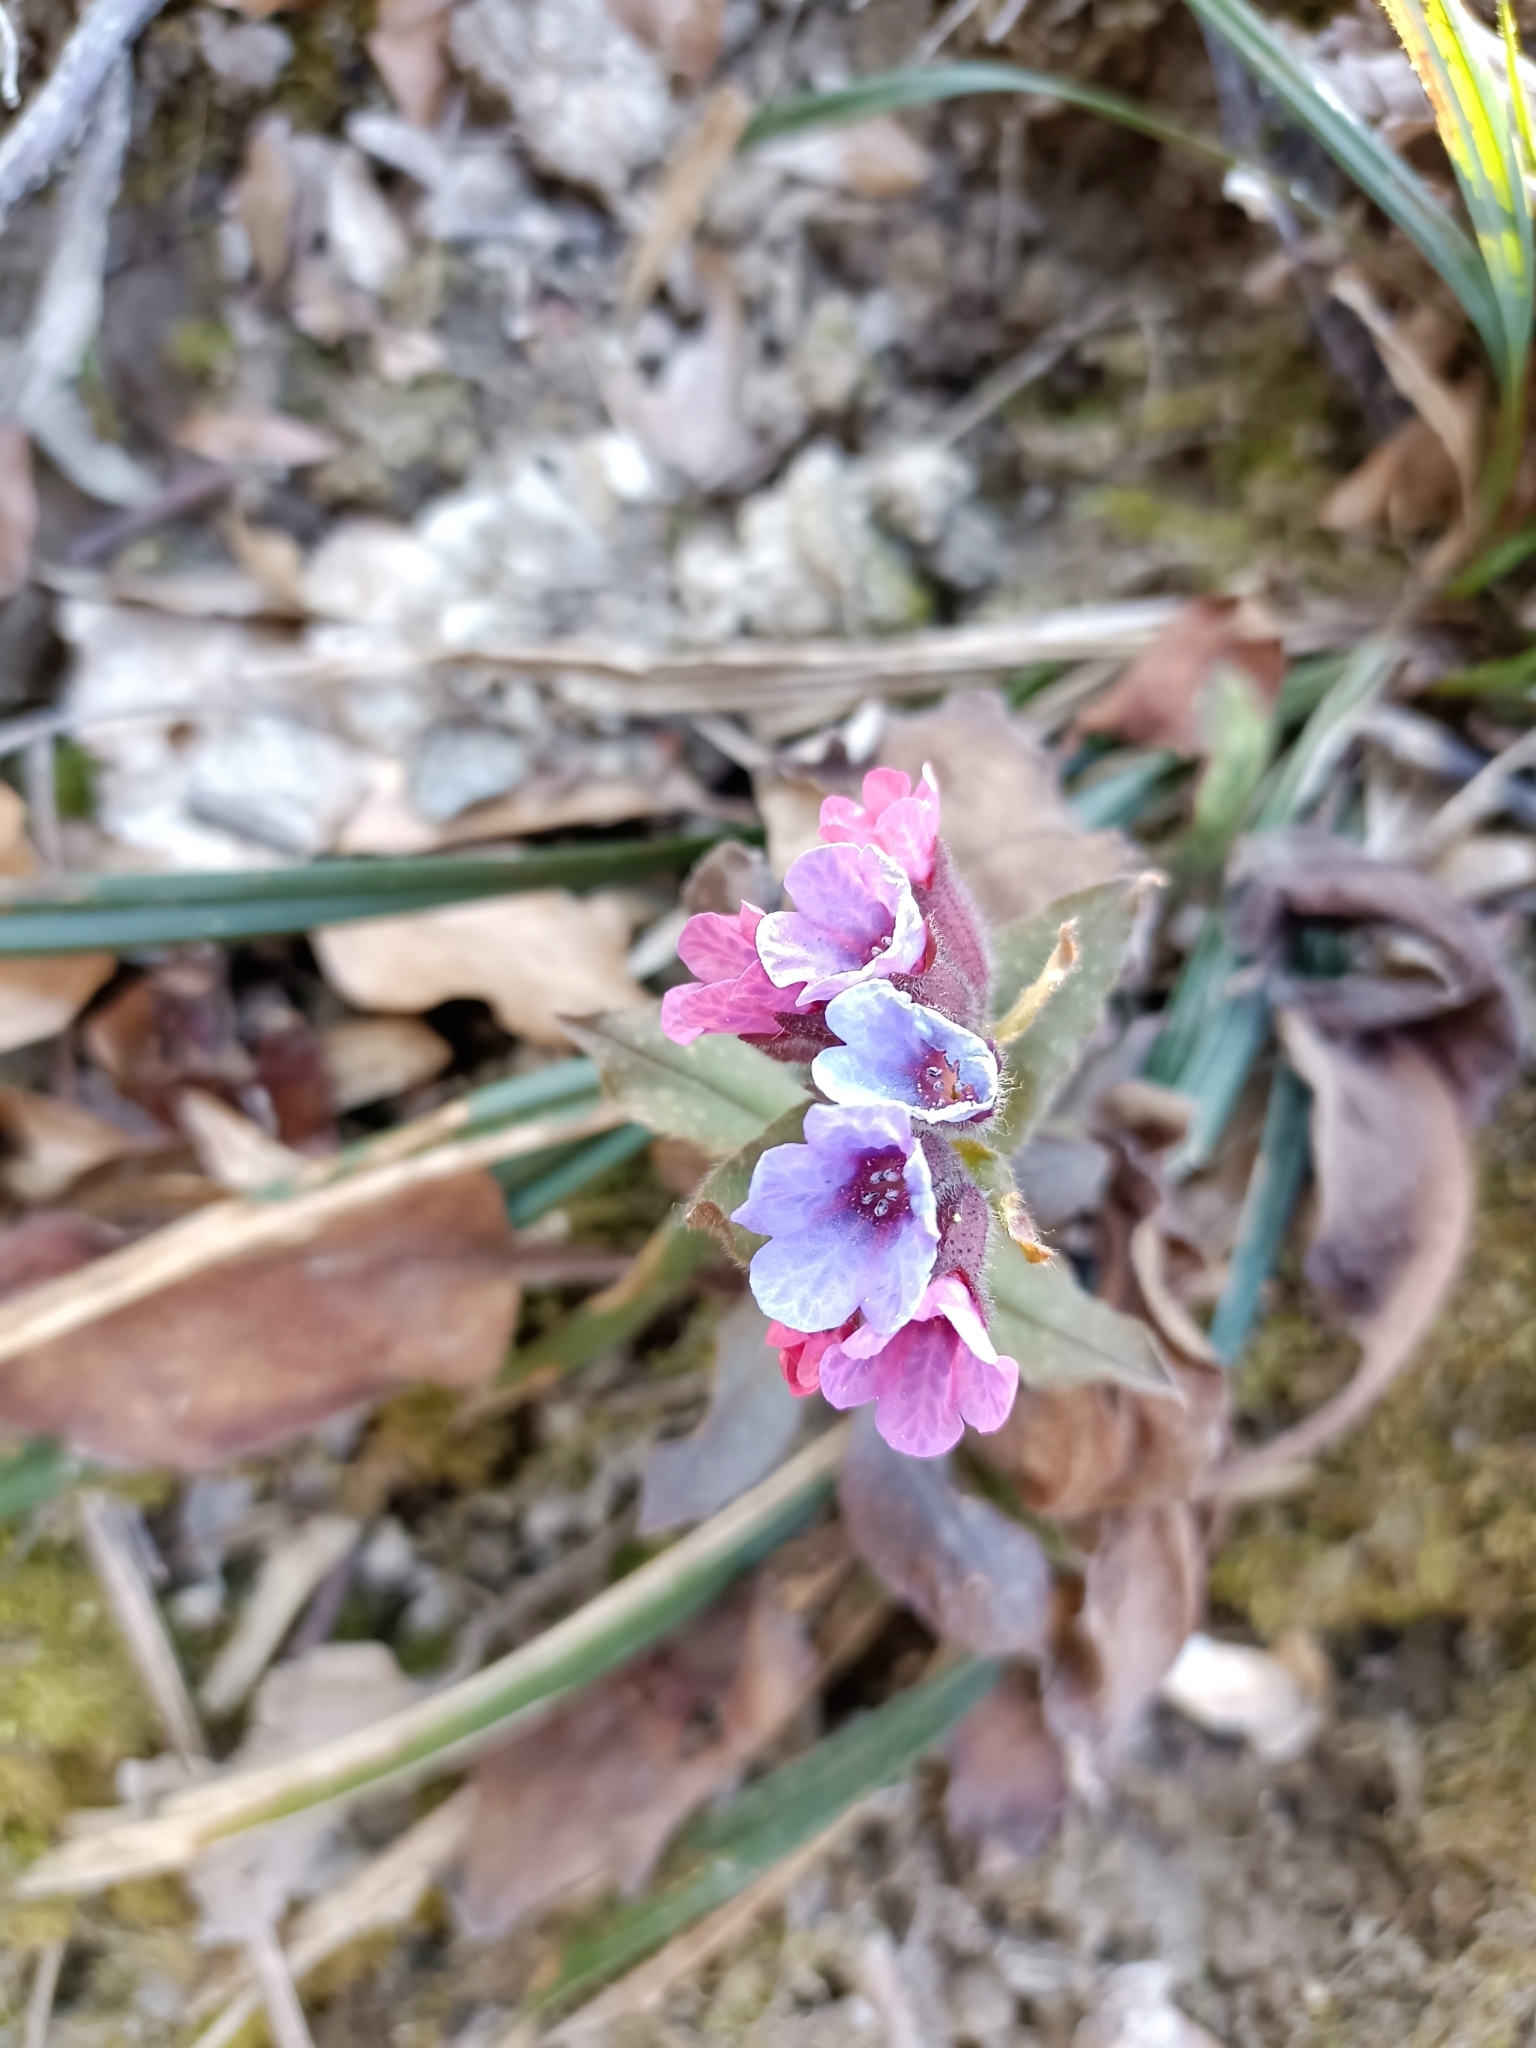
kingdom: Plantae
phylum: Tracheophyta
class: Magnoliopsida
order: Boraginales
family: Boraginaceae
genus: Pulmonaria
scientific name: Pulmonaria officinalis
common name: Lungwort
